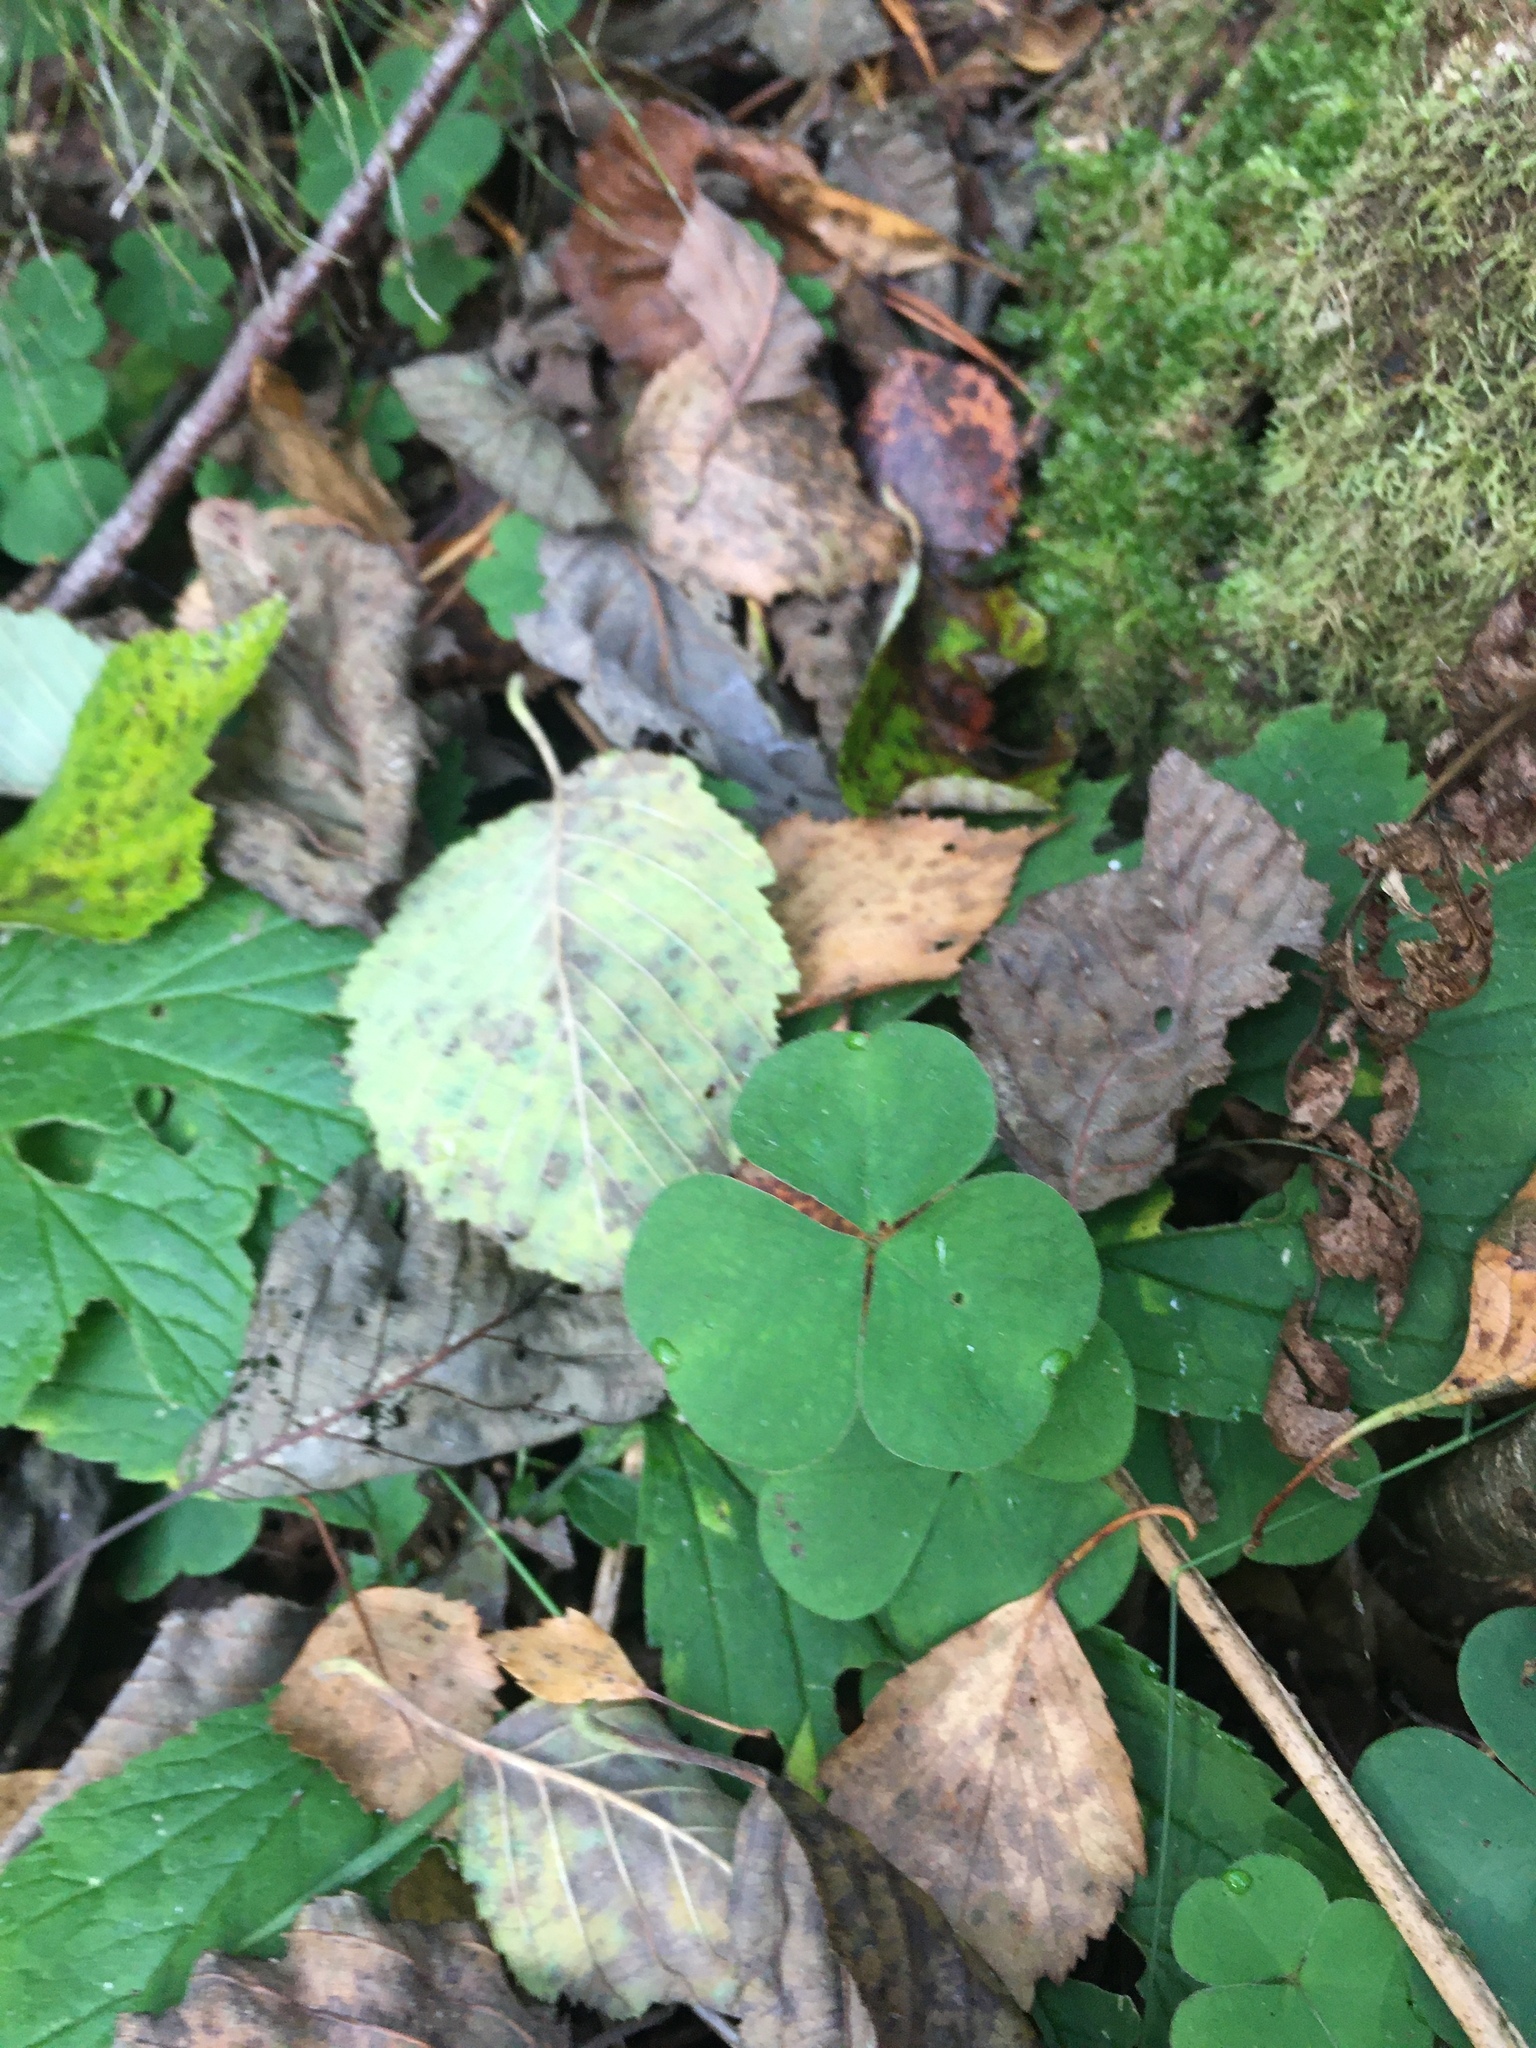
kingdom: Plantae
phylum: Tracheophyta
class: Magnoliopsida
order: Oxalidales
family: Oxalidaceae
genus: Oxalis
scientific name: Oxalis acetosella
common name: Wood-sorrel
